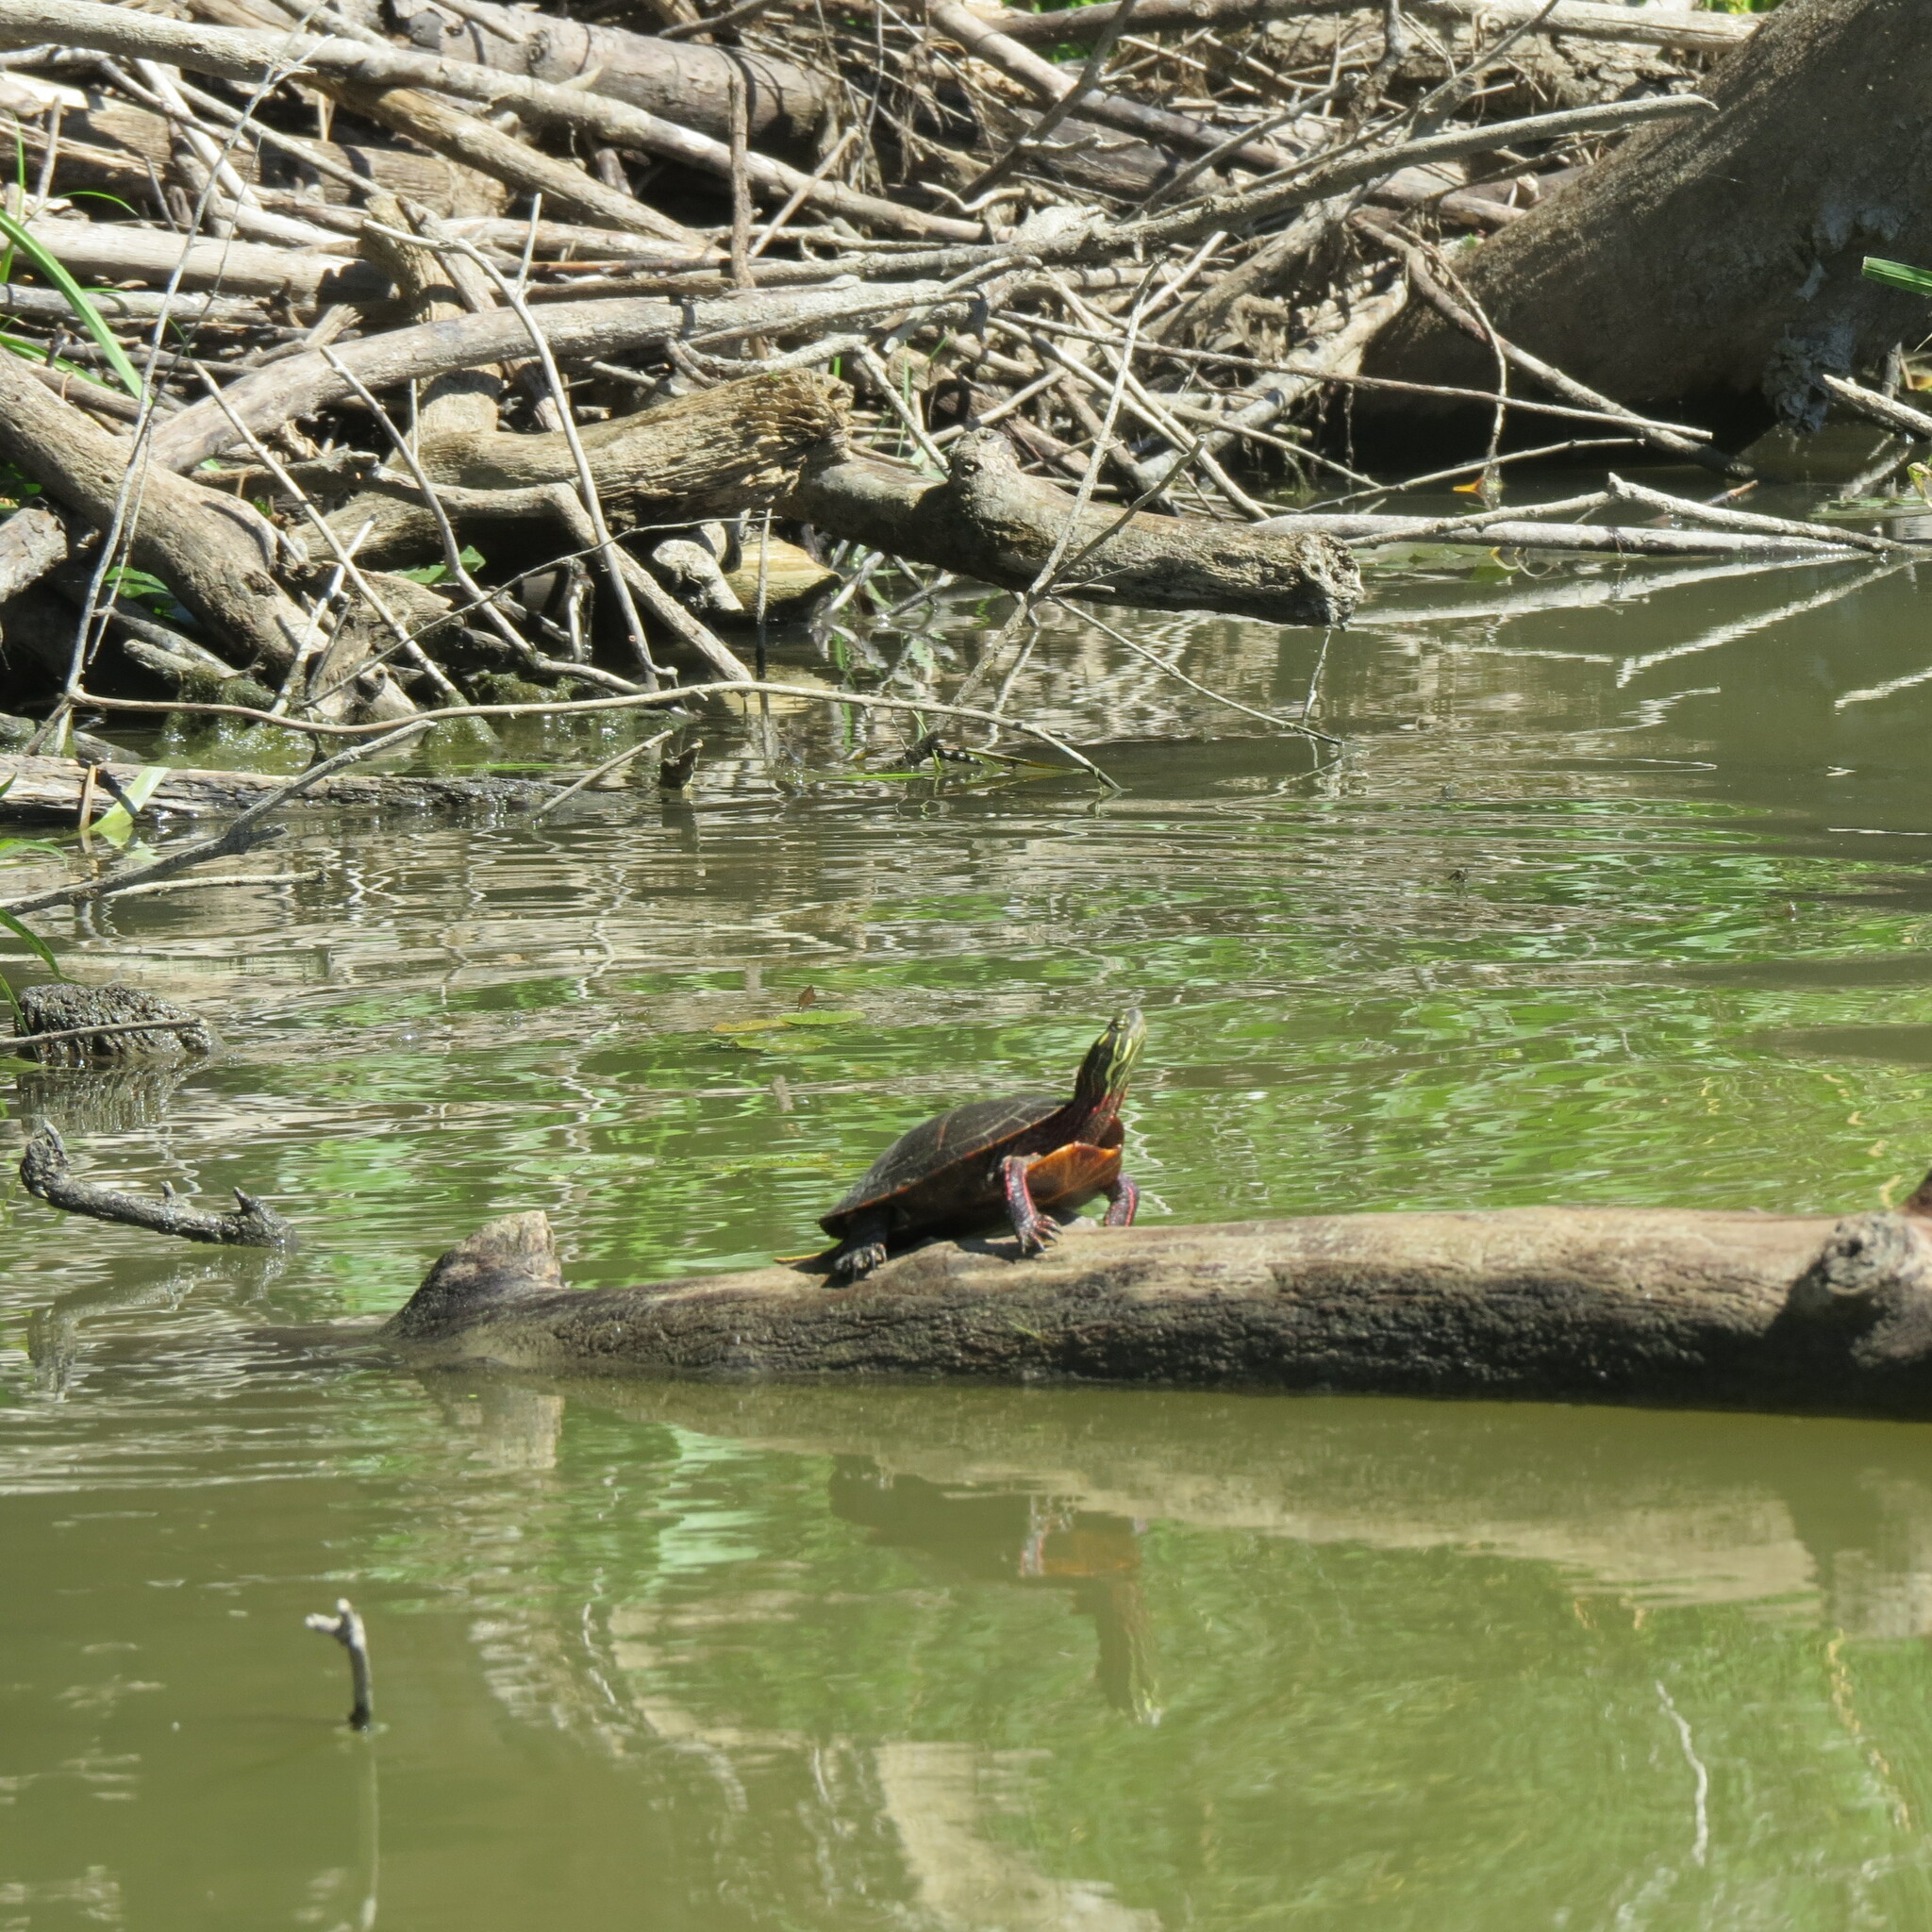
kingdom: Animalia
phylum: Chordata
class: Testudines
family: Emydidae
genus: Chrysemys
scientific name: Chrysemys picta
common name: Painted turtle
